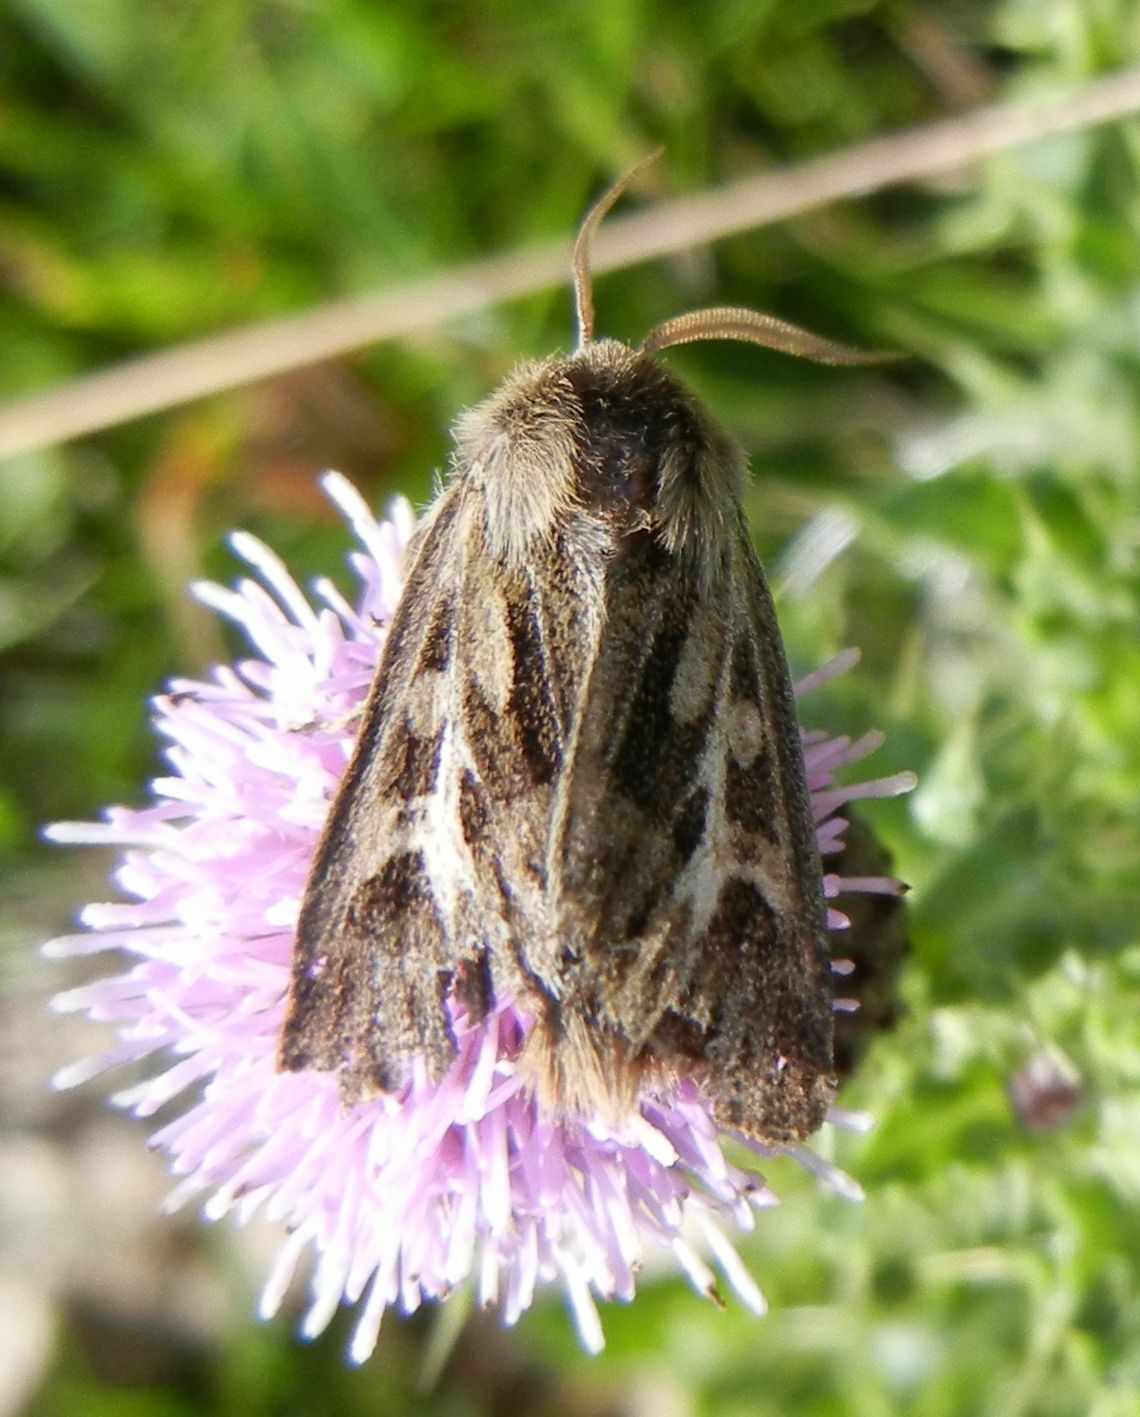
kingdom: Animalia
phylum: Arthropoda
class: Insecta
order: Lepidoptera
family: Noctuidae
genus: Cerapteryx
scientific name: Cerapteryx graminis
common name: Antler moth
